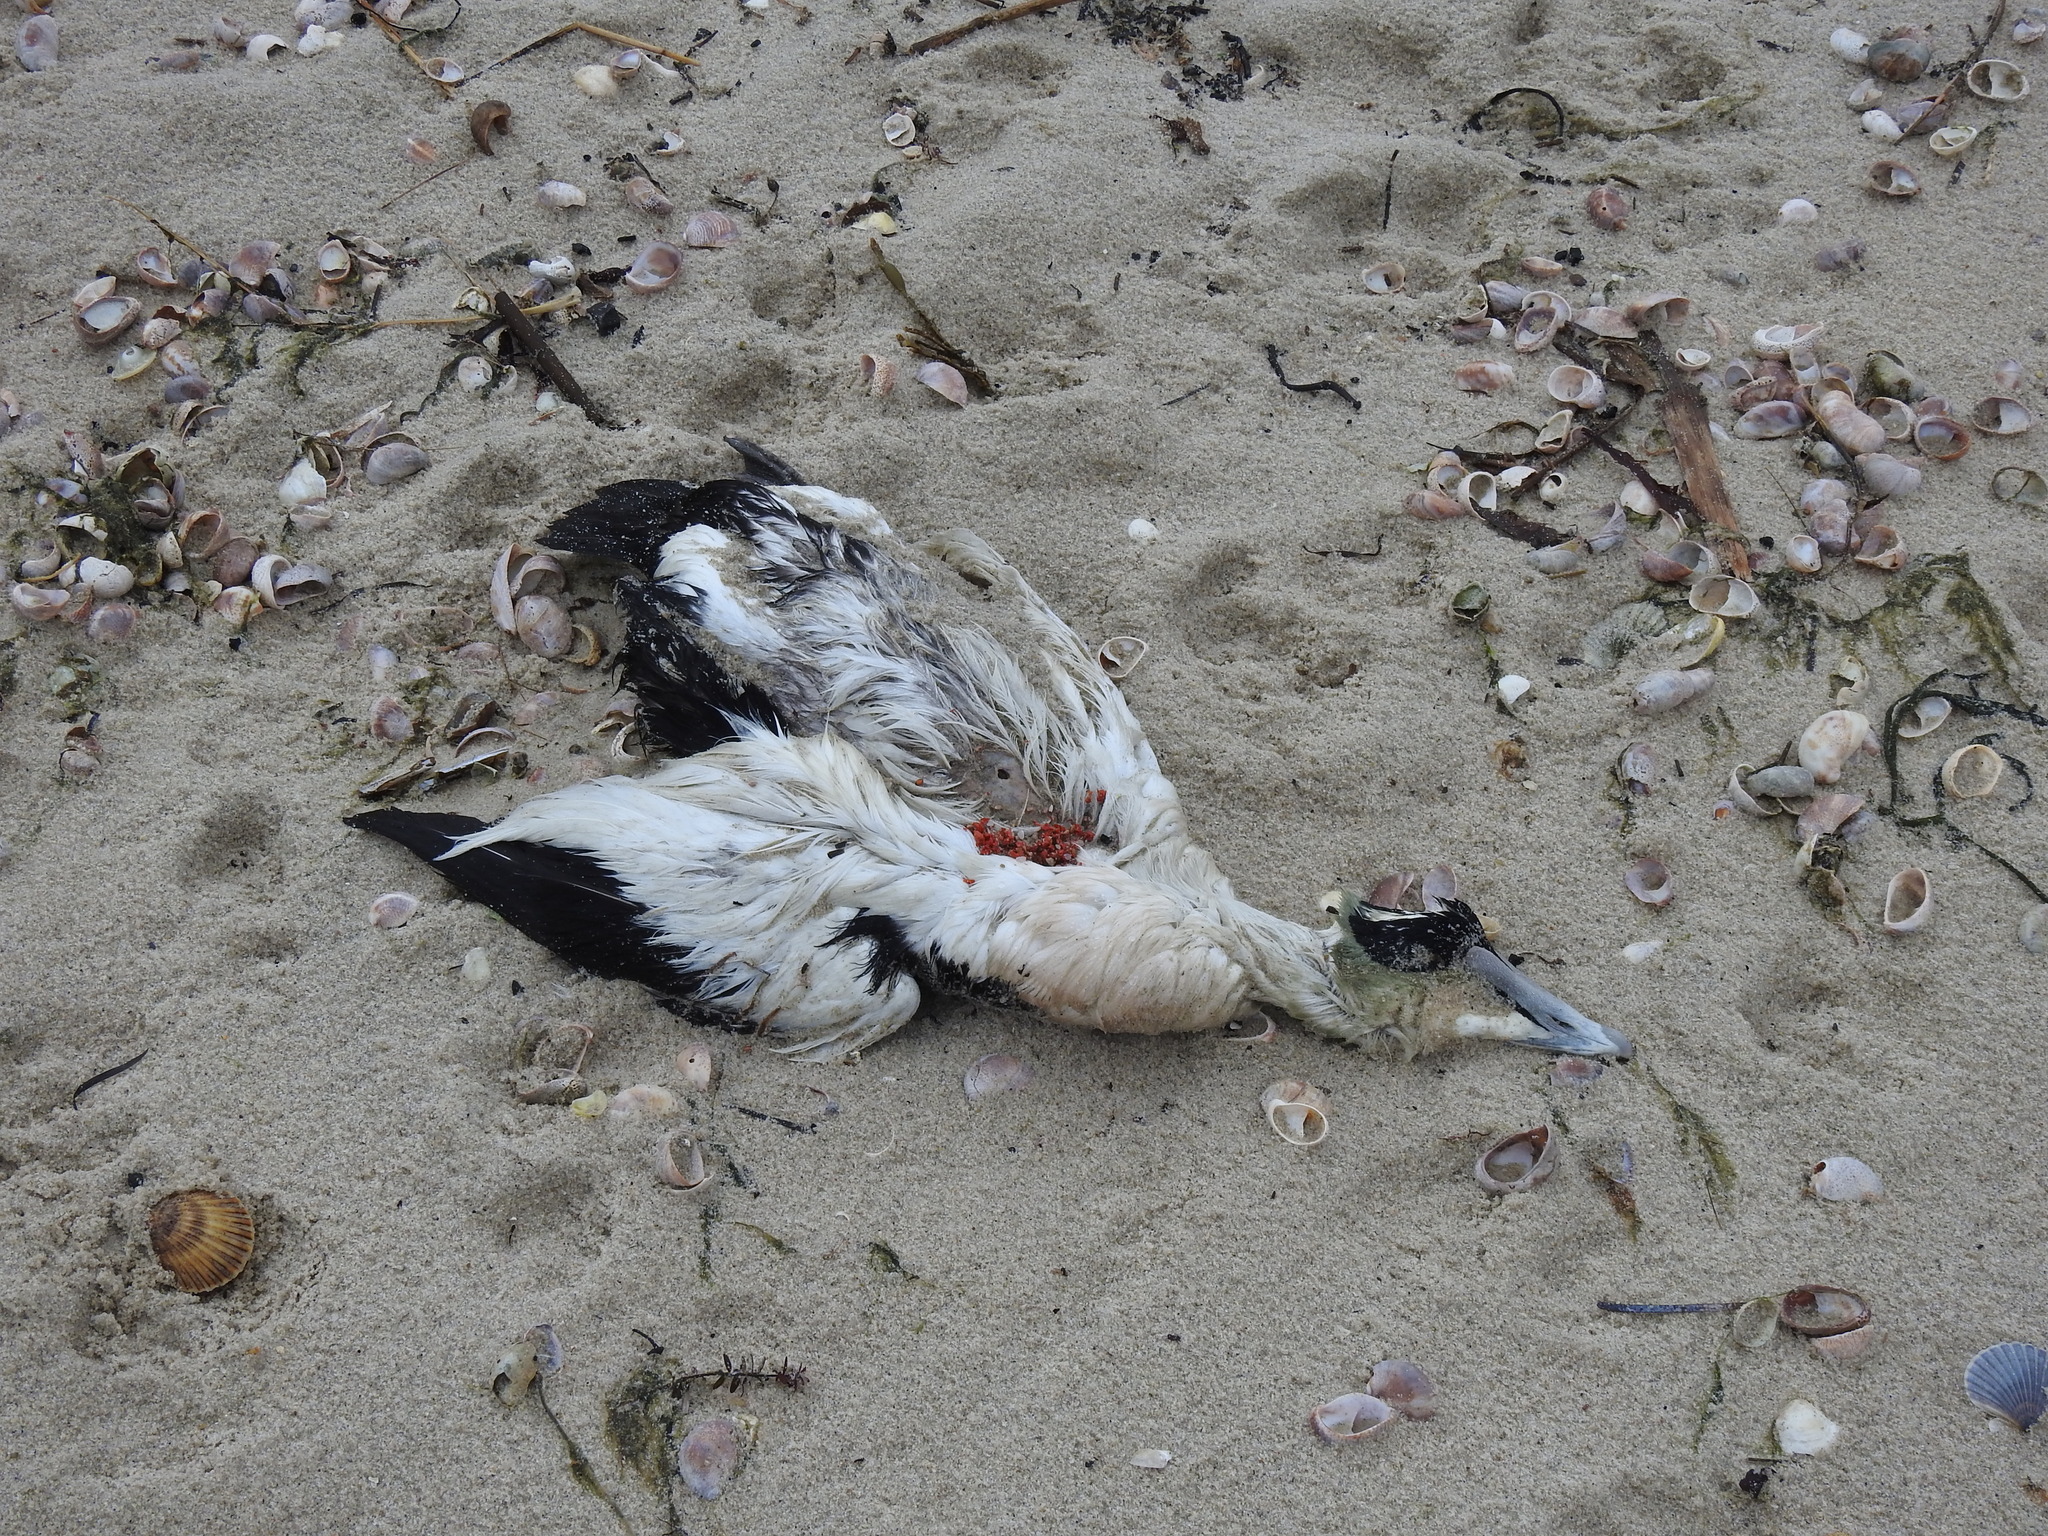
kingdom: Animalia
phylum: Chordata
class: Aves
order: Anseriformes
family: Anatidae
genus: Somateria
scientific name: Somateria mollissima
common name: Common eider
